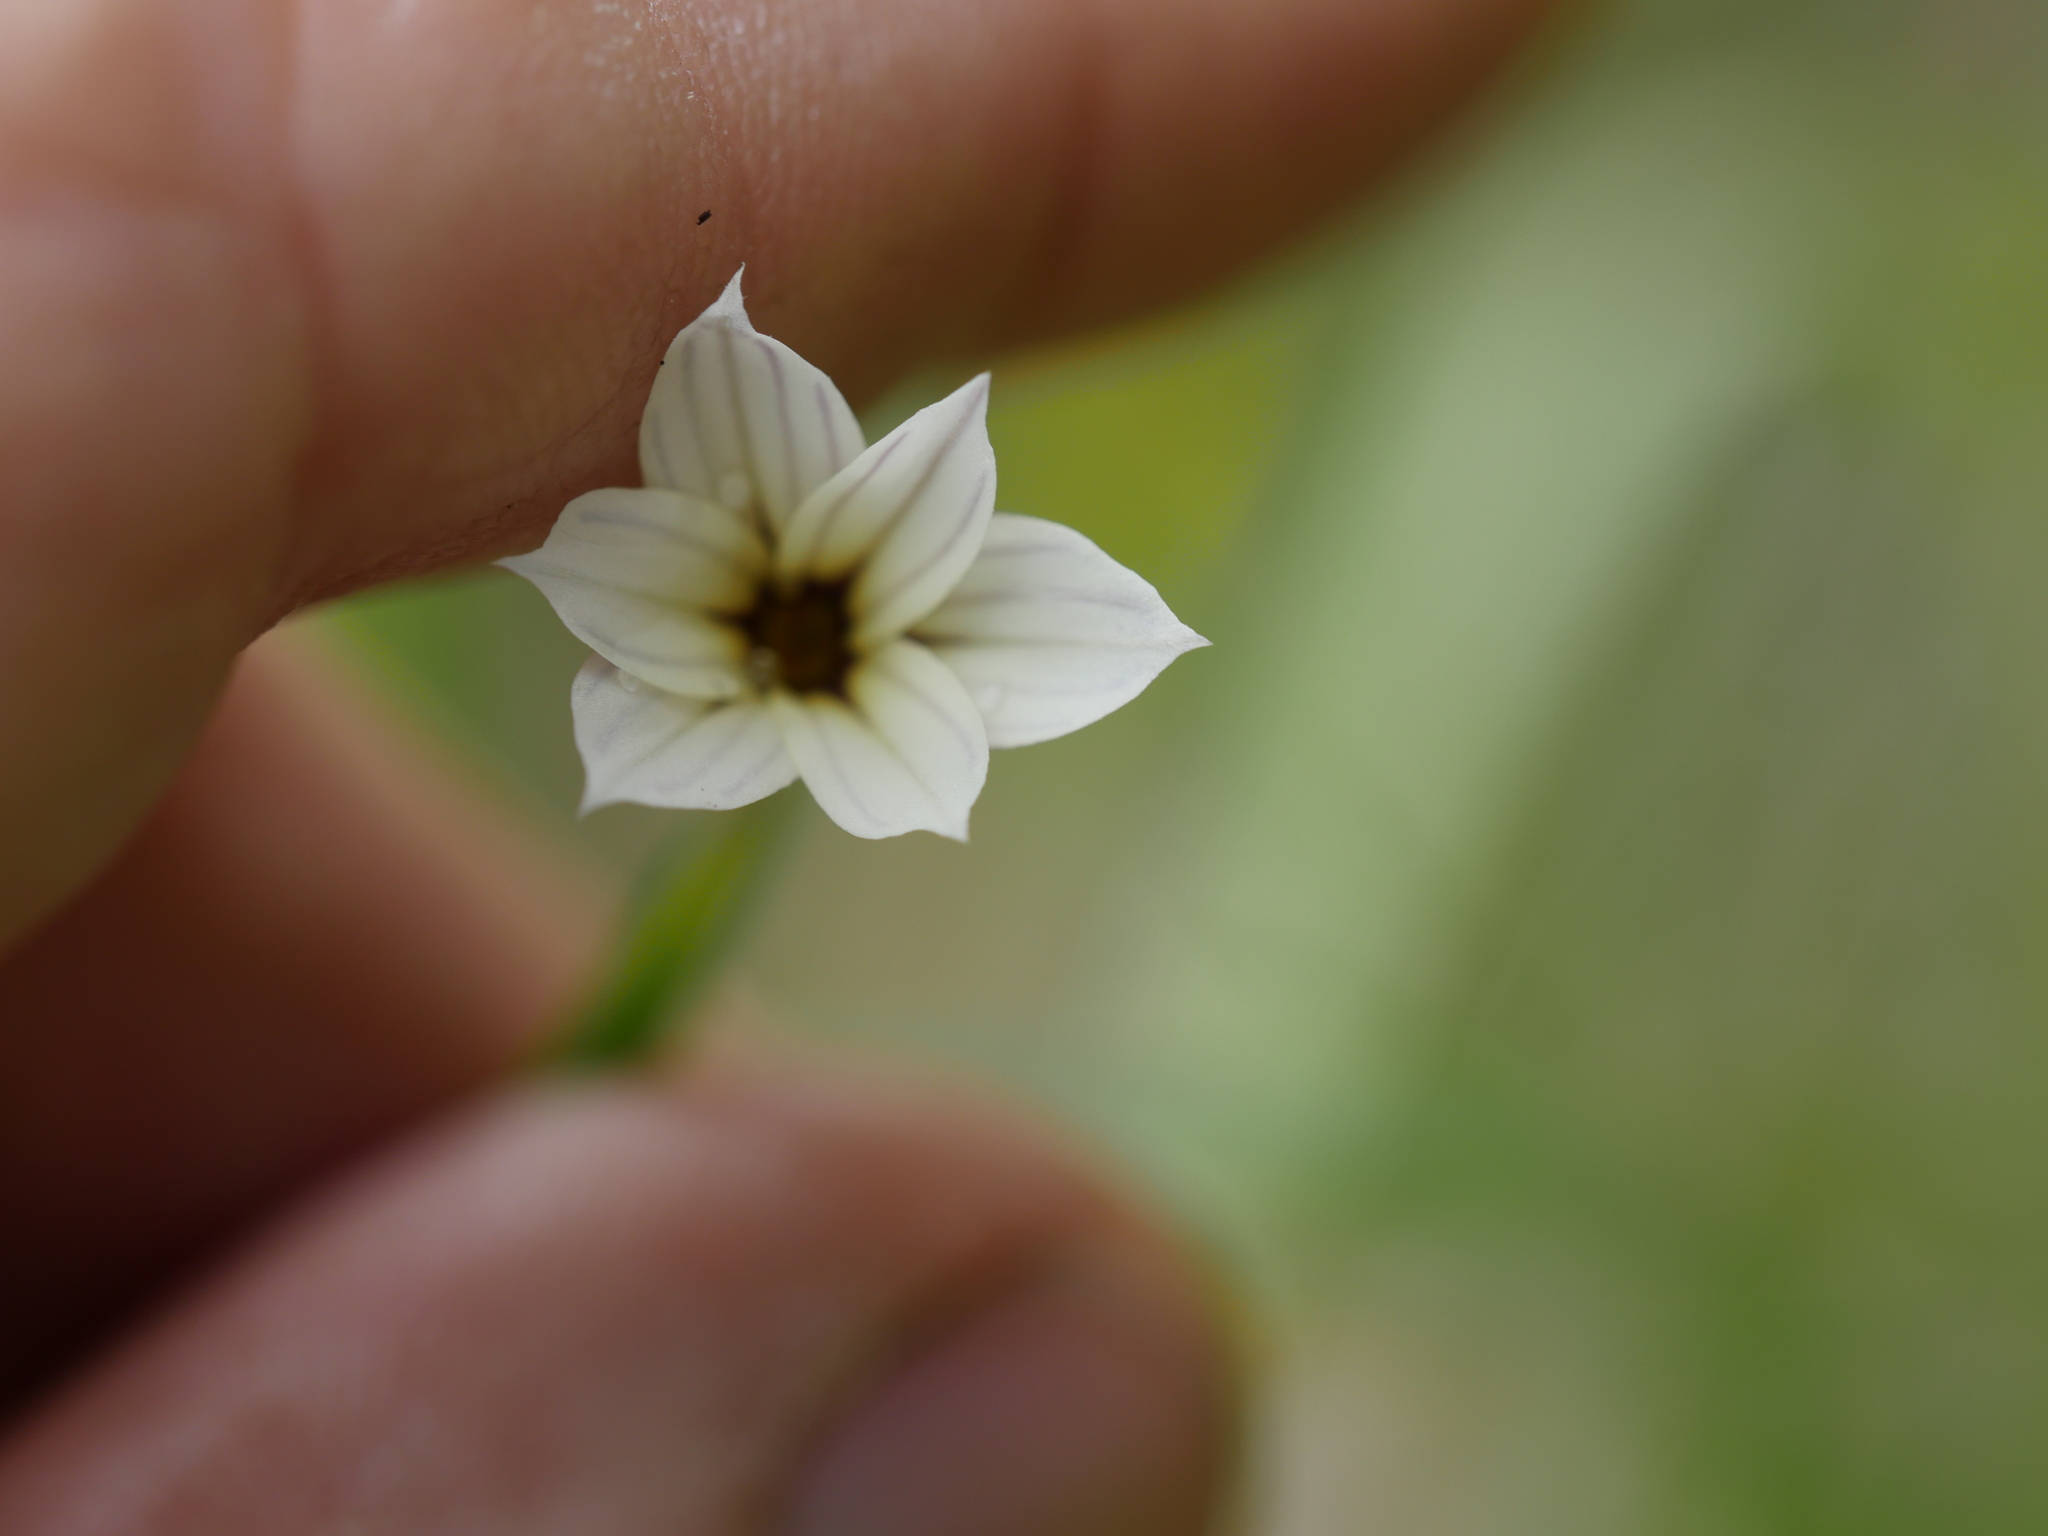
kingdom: Plantae
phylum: Tracheophyta
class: Liliopsida
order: Asparagales
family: Iridaceae
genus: Sisyrinchium
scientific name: Sisyrinchium micranthum
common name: Bermuda pigroot
